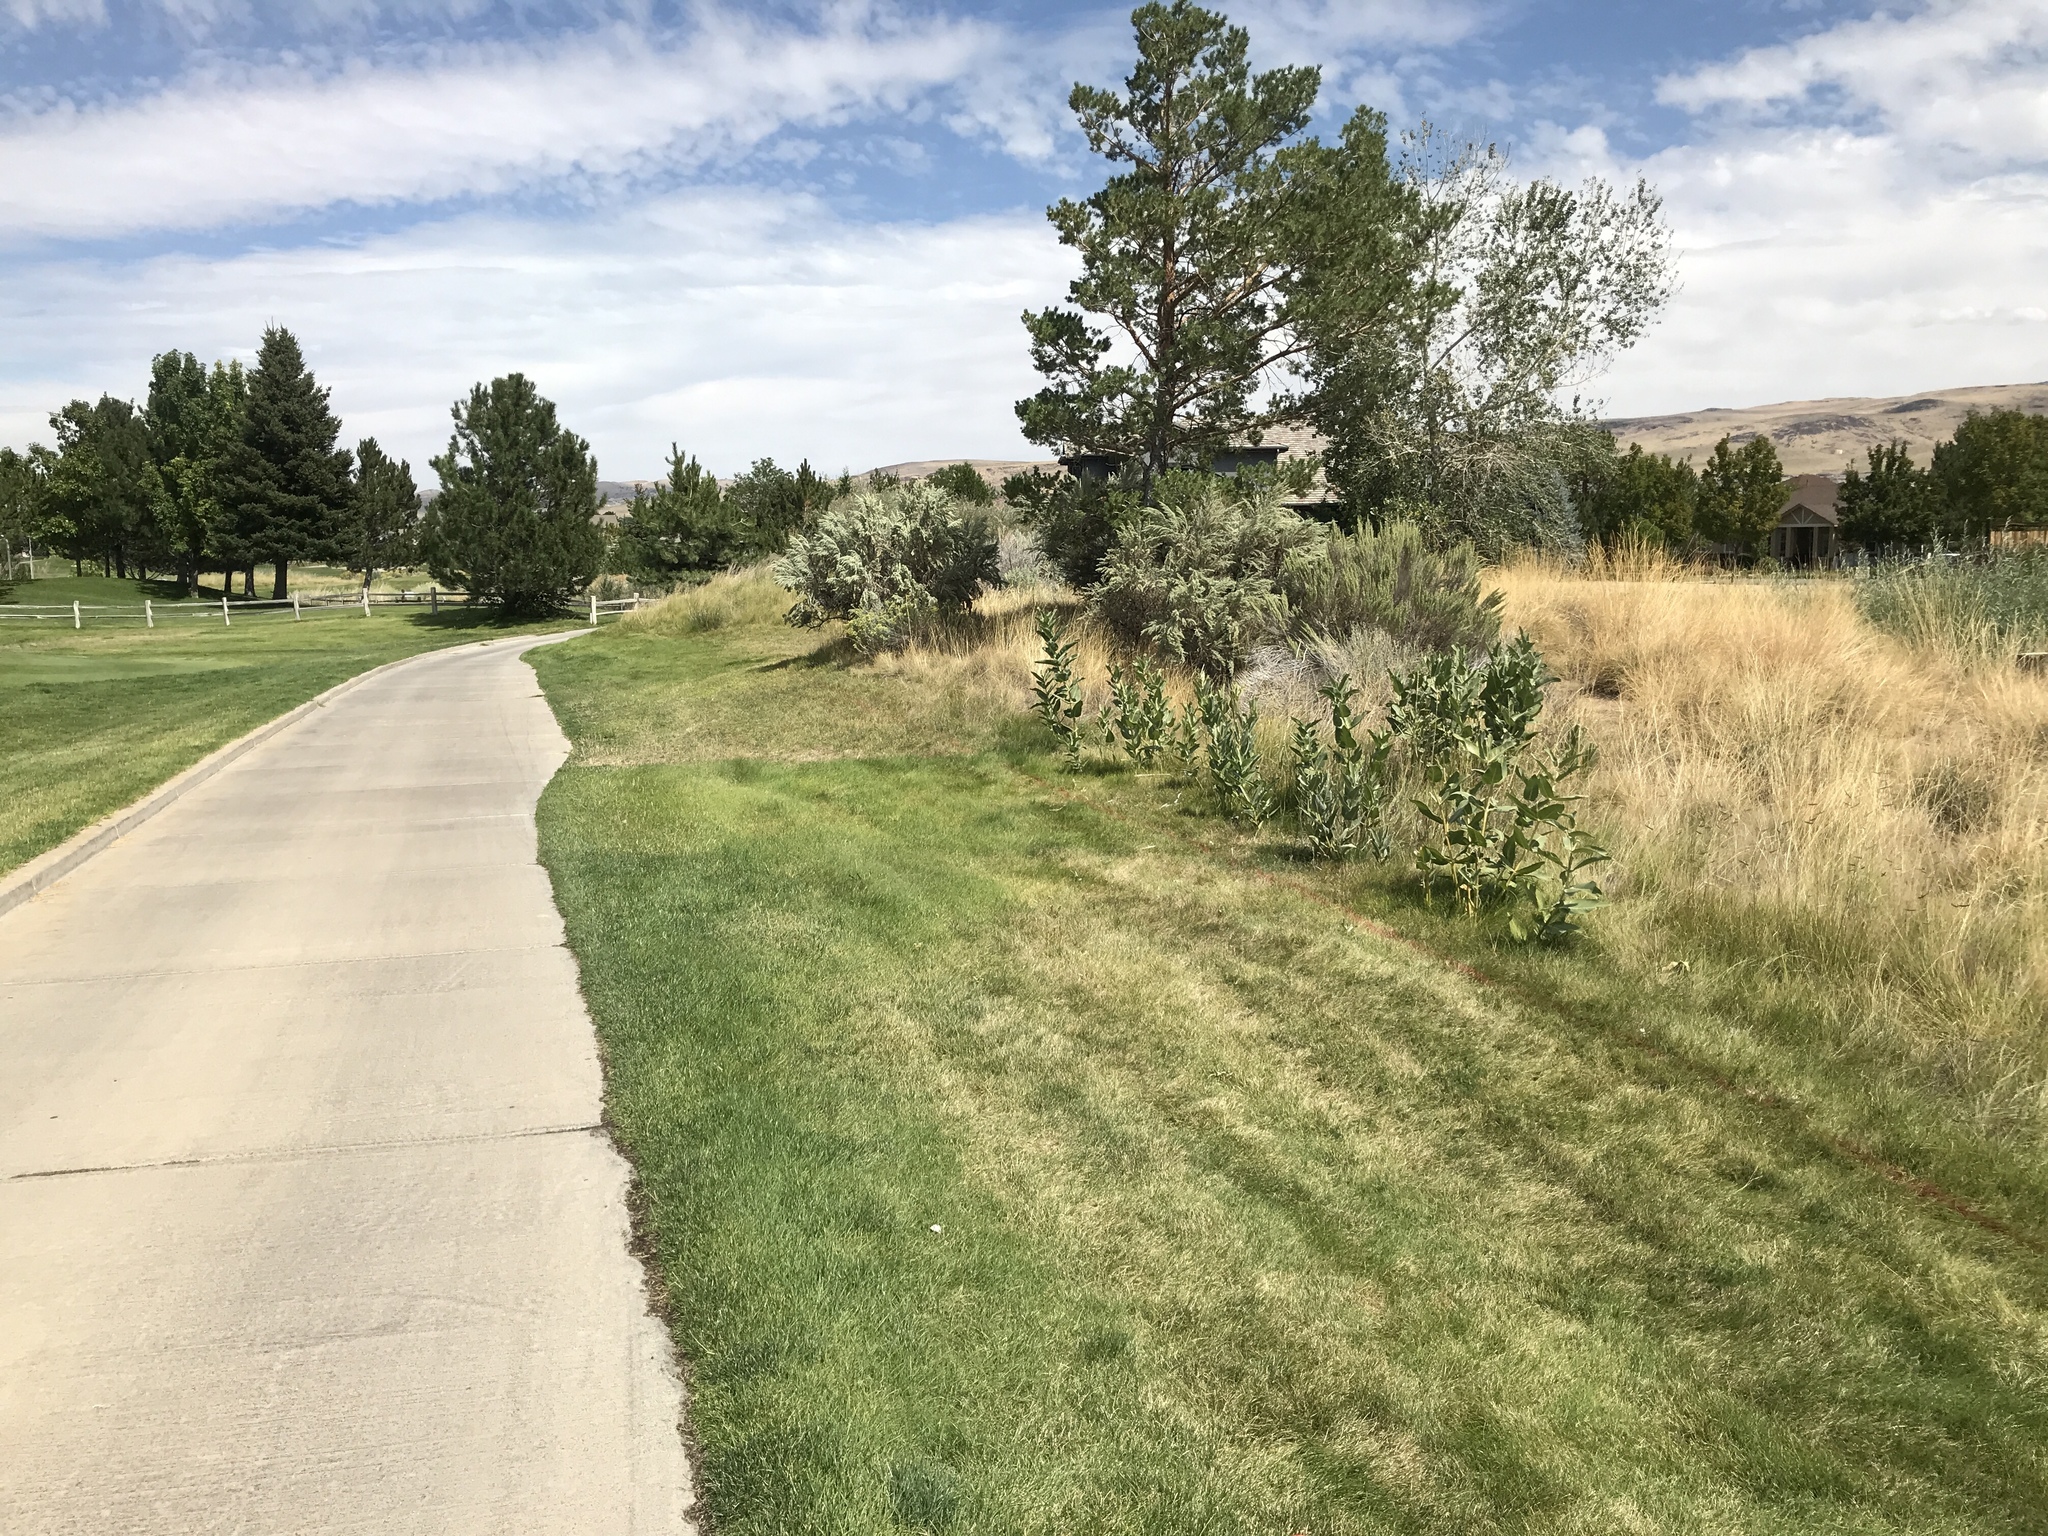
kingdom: Plantae
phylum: Tracheophyta
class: Magnoliopsida
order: Gentianales
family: Apocynaceae
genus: Asclepias
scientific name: Asclepias speciosa
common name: Showy milkweed
